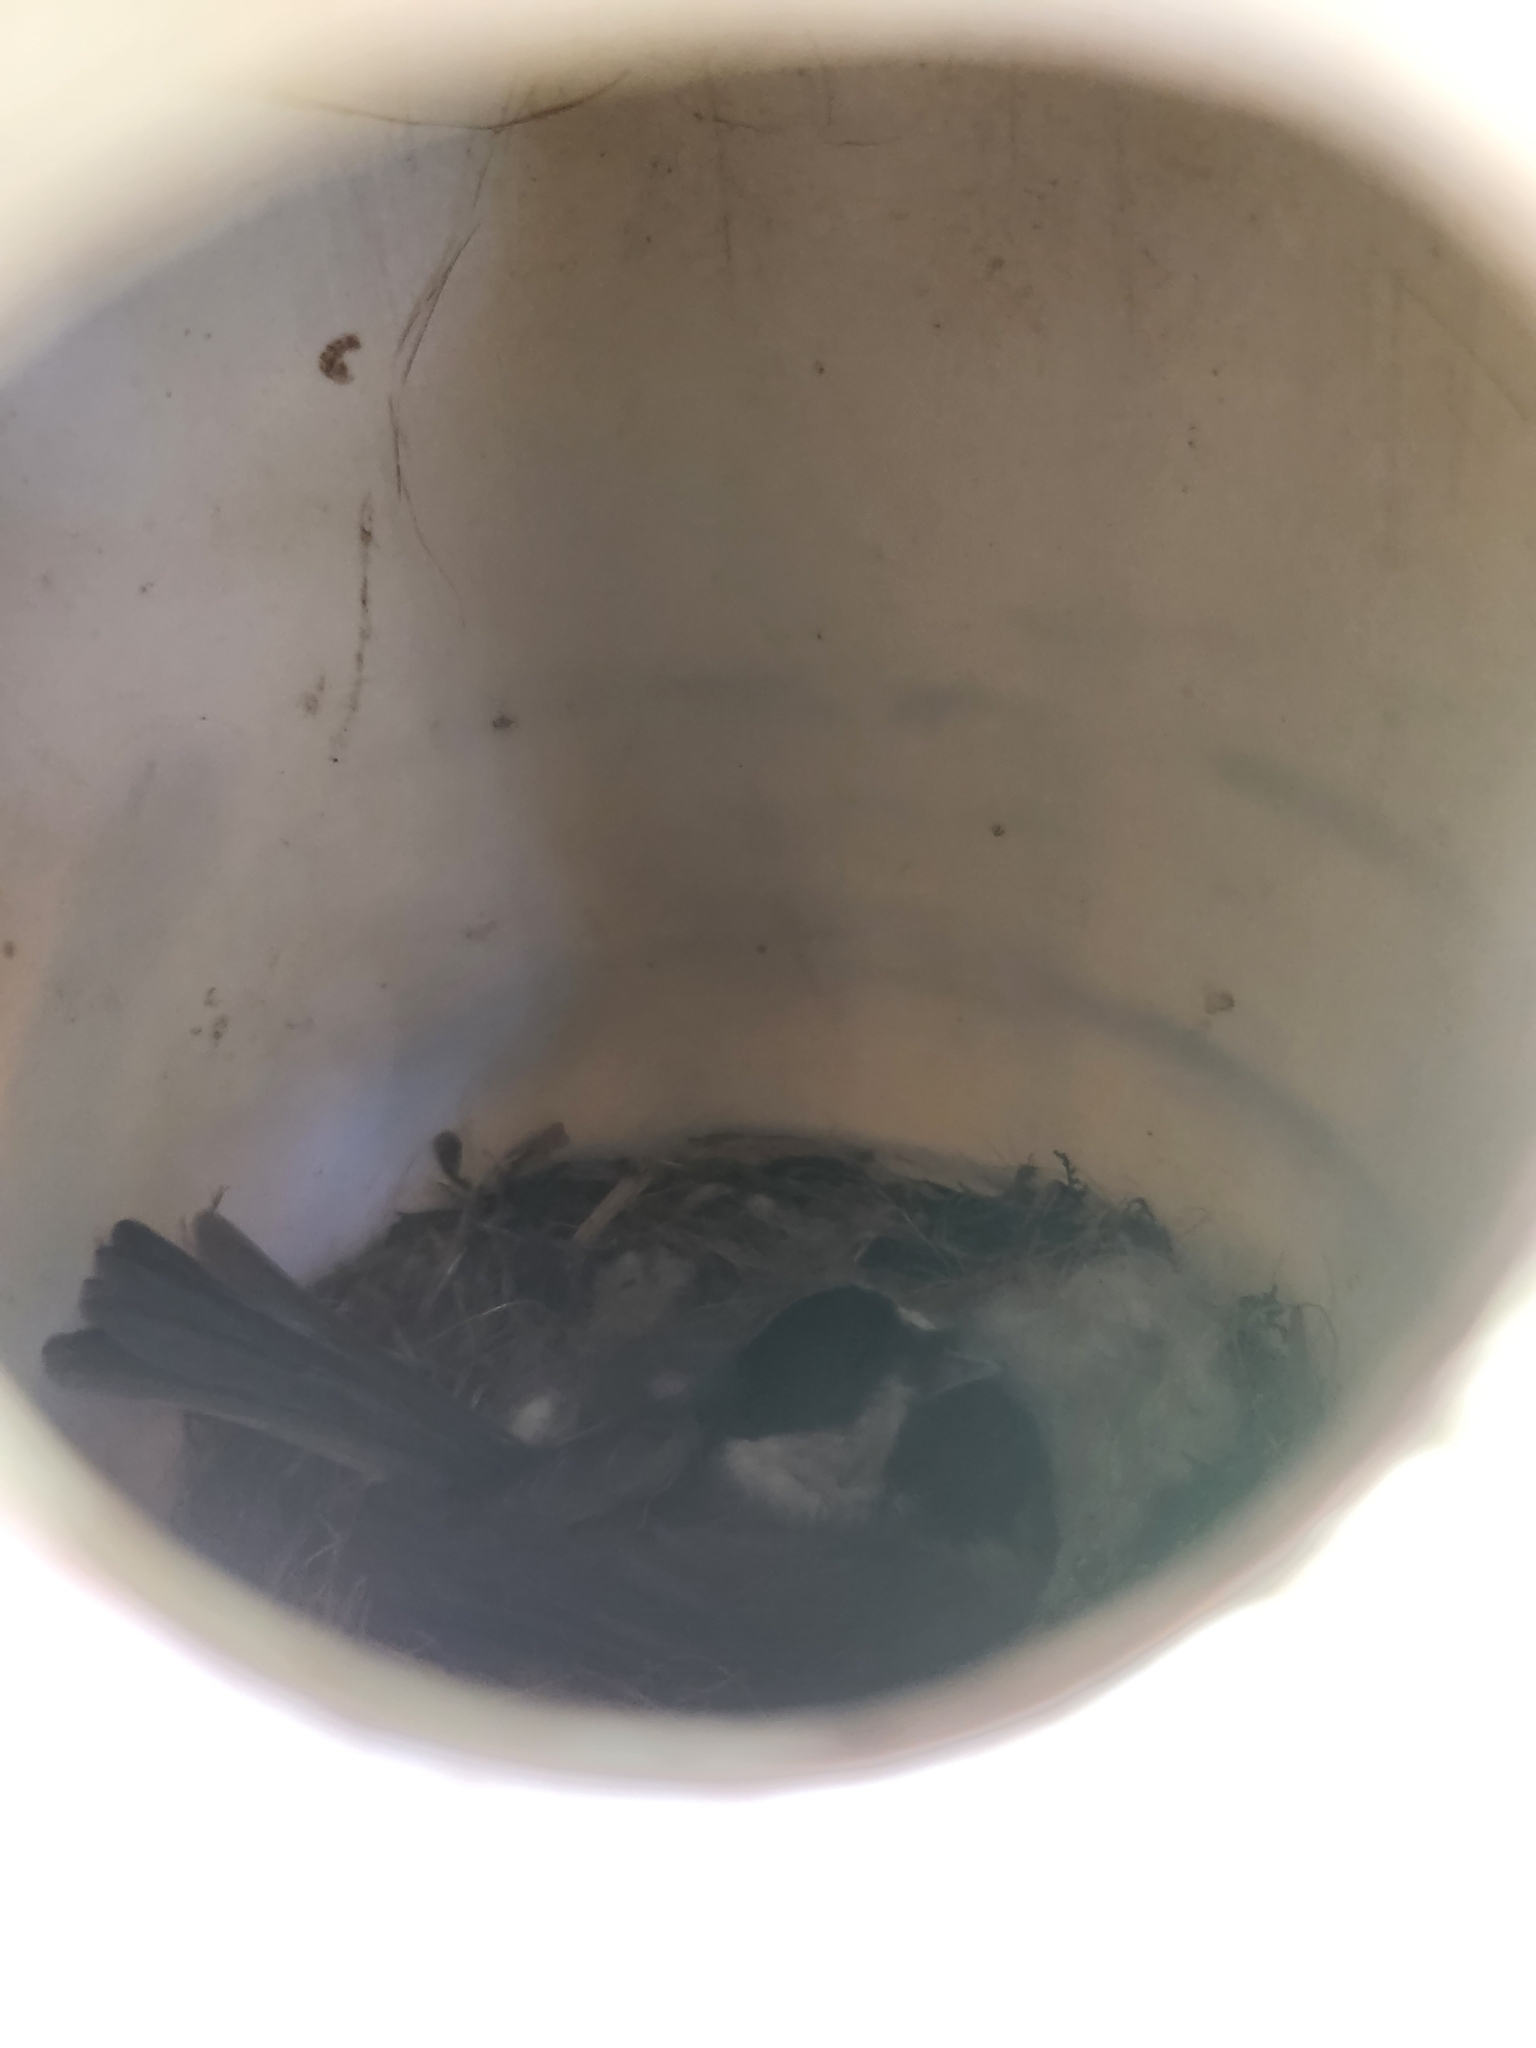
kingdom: Animalia
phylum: Chordata
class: Aves
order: Passeriformes
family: Paridae
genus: Poecile
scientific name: Poecile carolinensis
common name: Carolina chickadee
